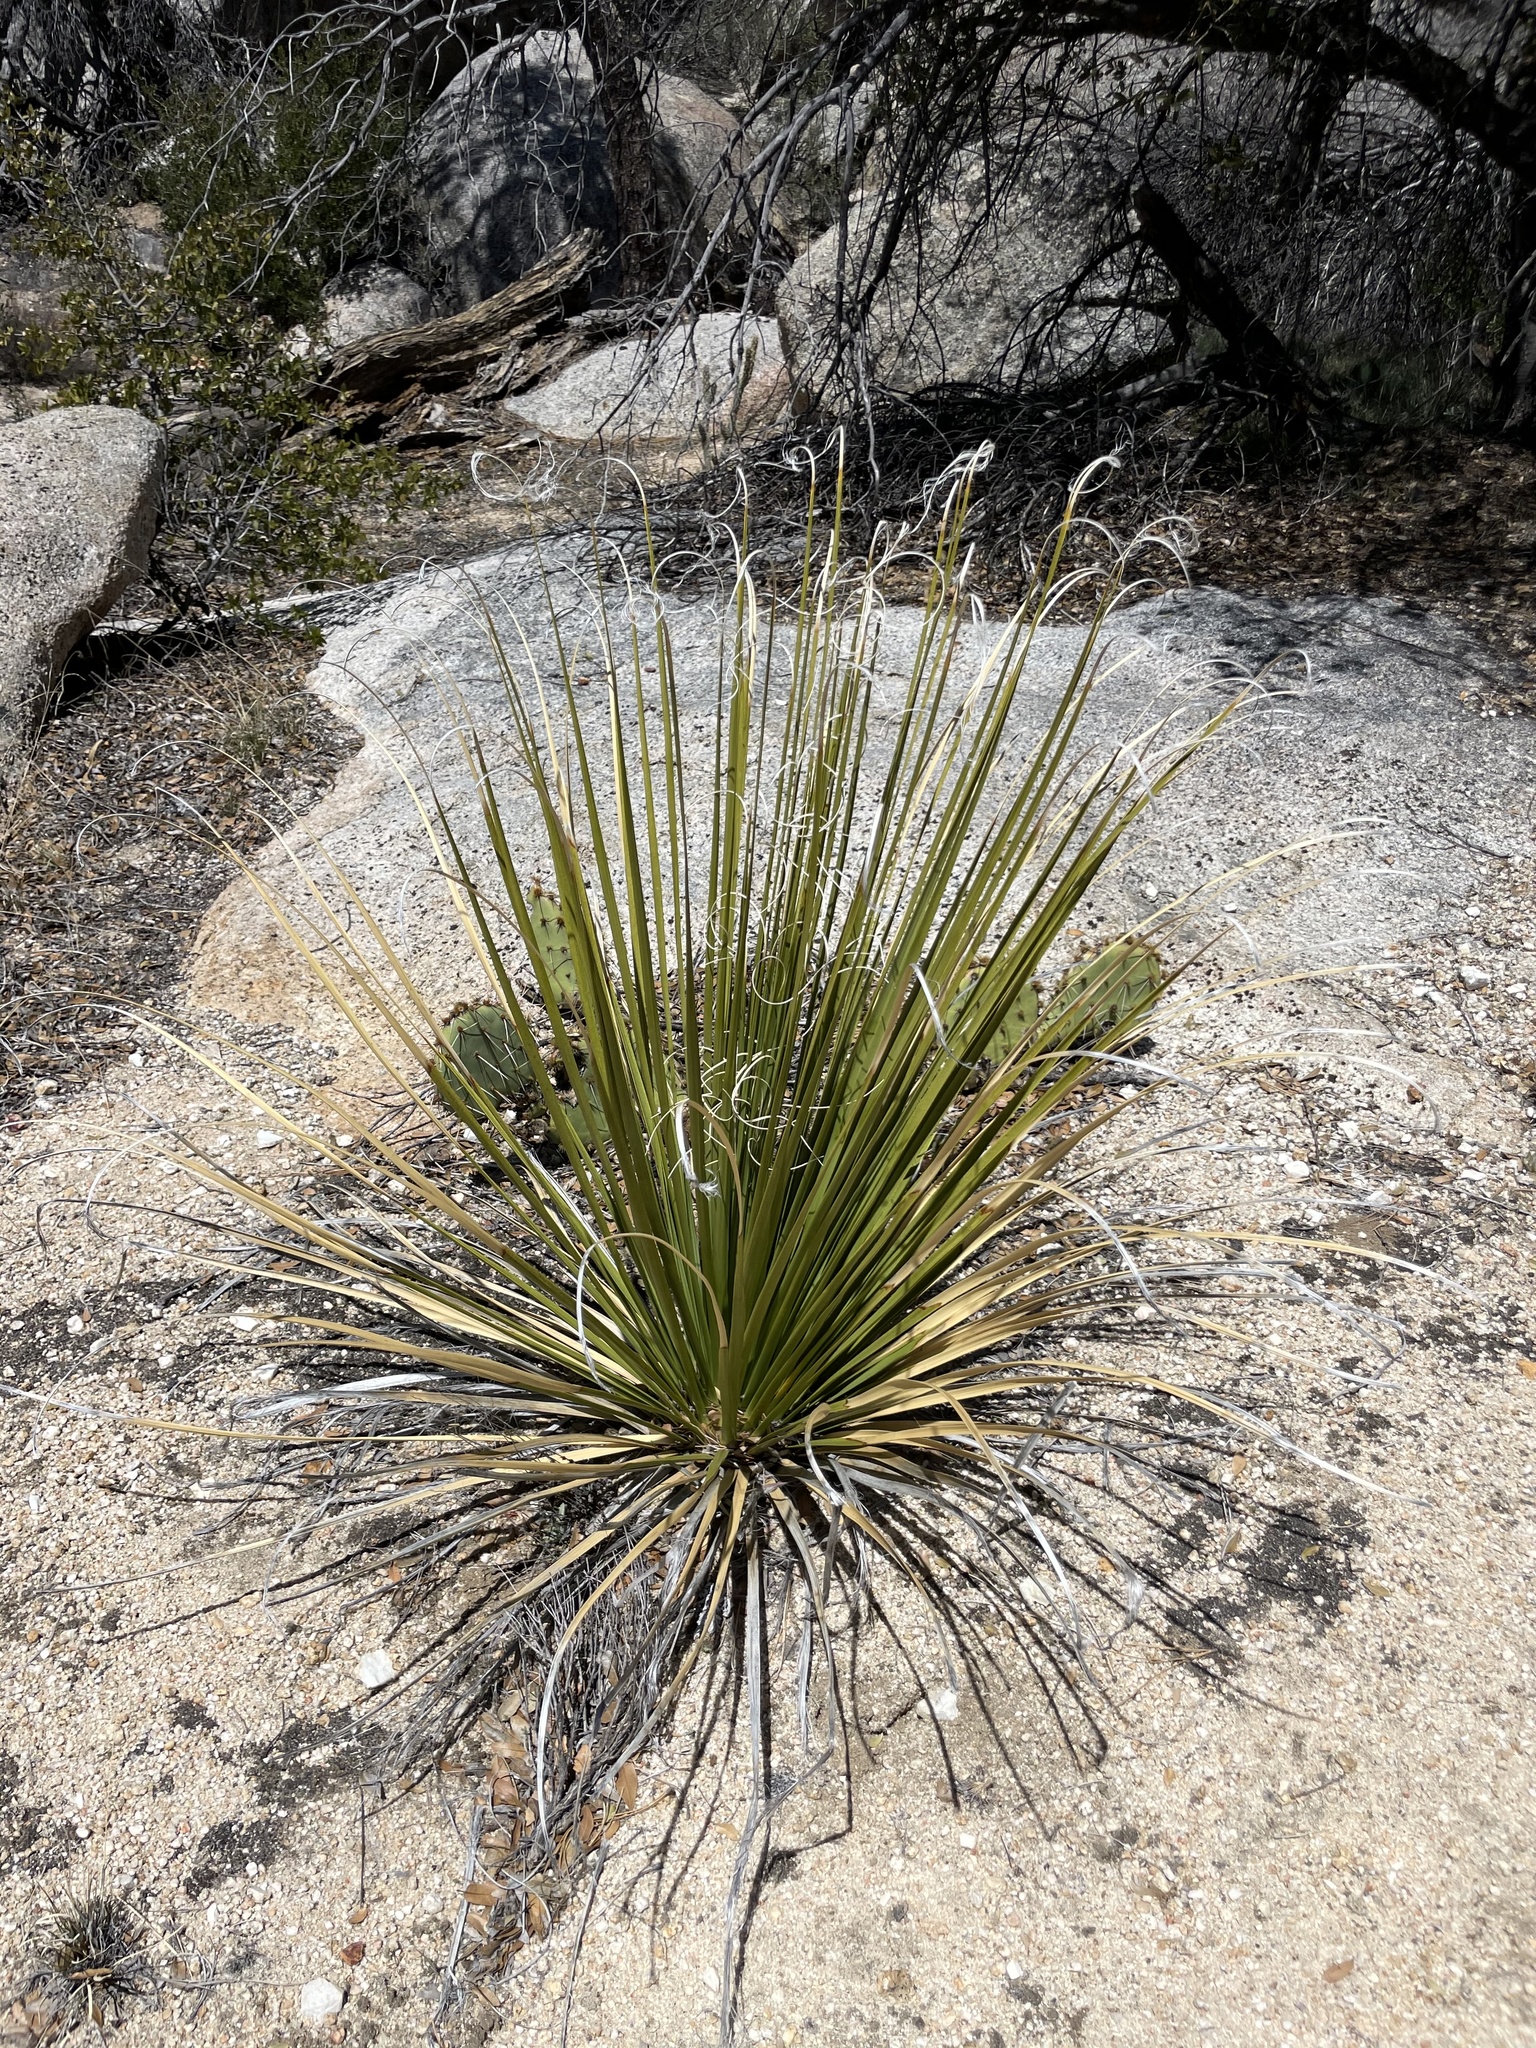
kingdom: Plantae
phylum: Tracheophyta
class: Liliopsida
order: Asparagales
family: Asparagaceae
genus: Nolina
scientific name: Nolina palmeri
